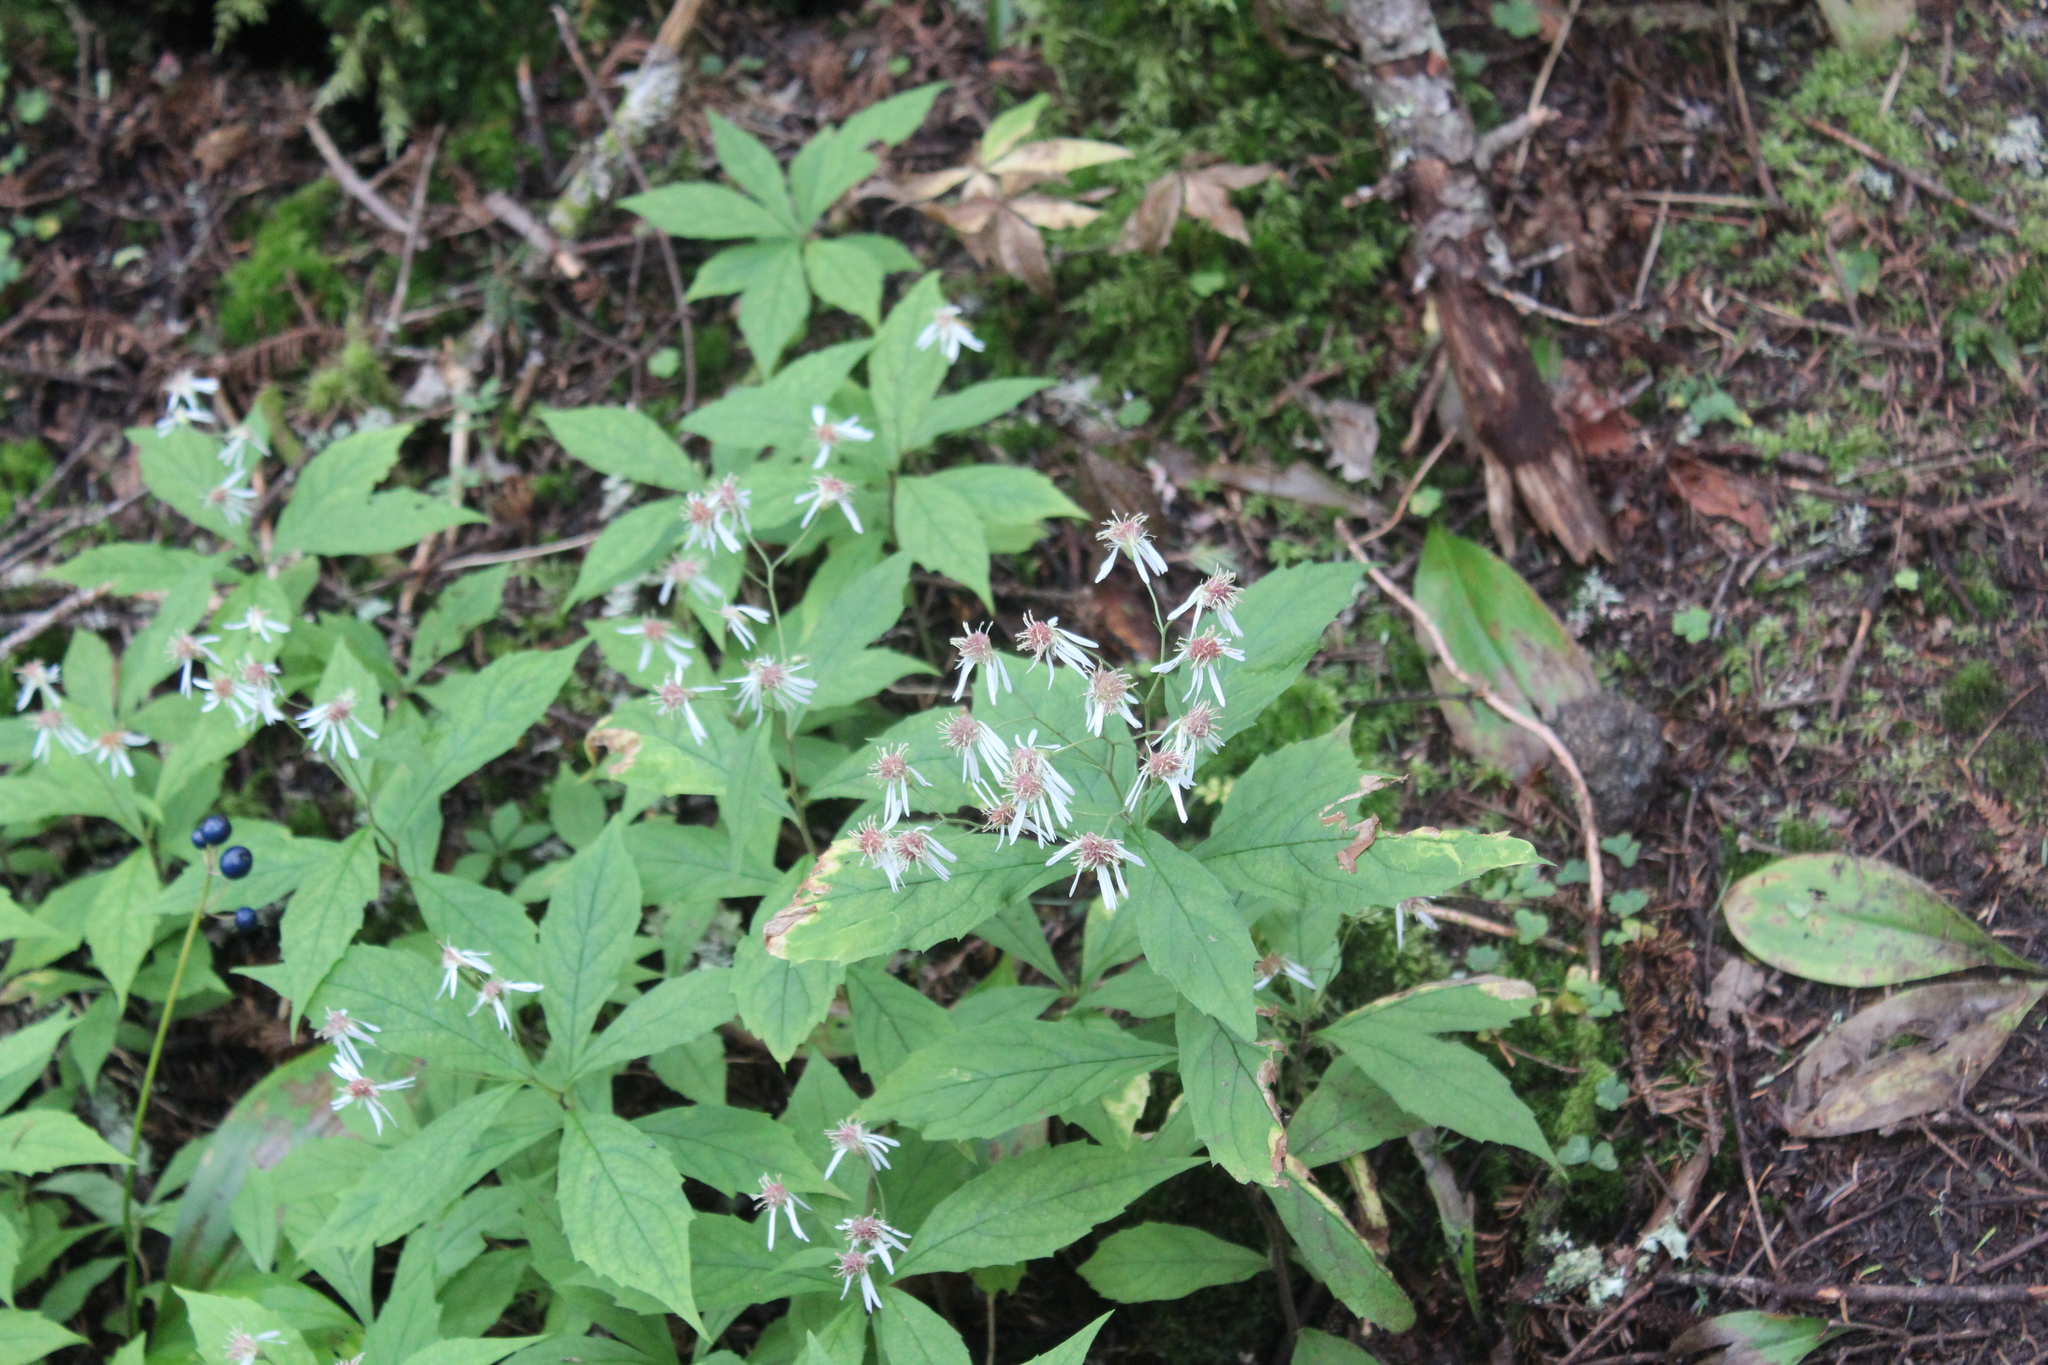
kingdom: Plantae
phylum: Tracheophyta
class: Magnoliopsida
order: Asterales
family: Asteraceae
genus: Oclemena
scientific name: Oclemena acuminata
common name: Mountain aster
